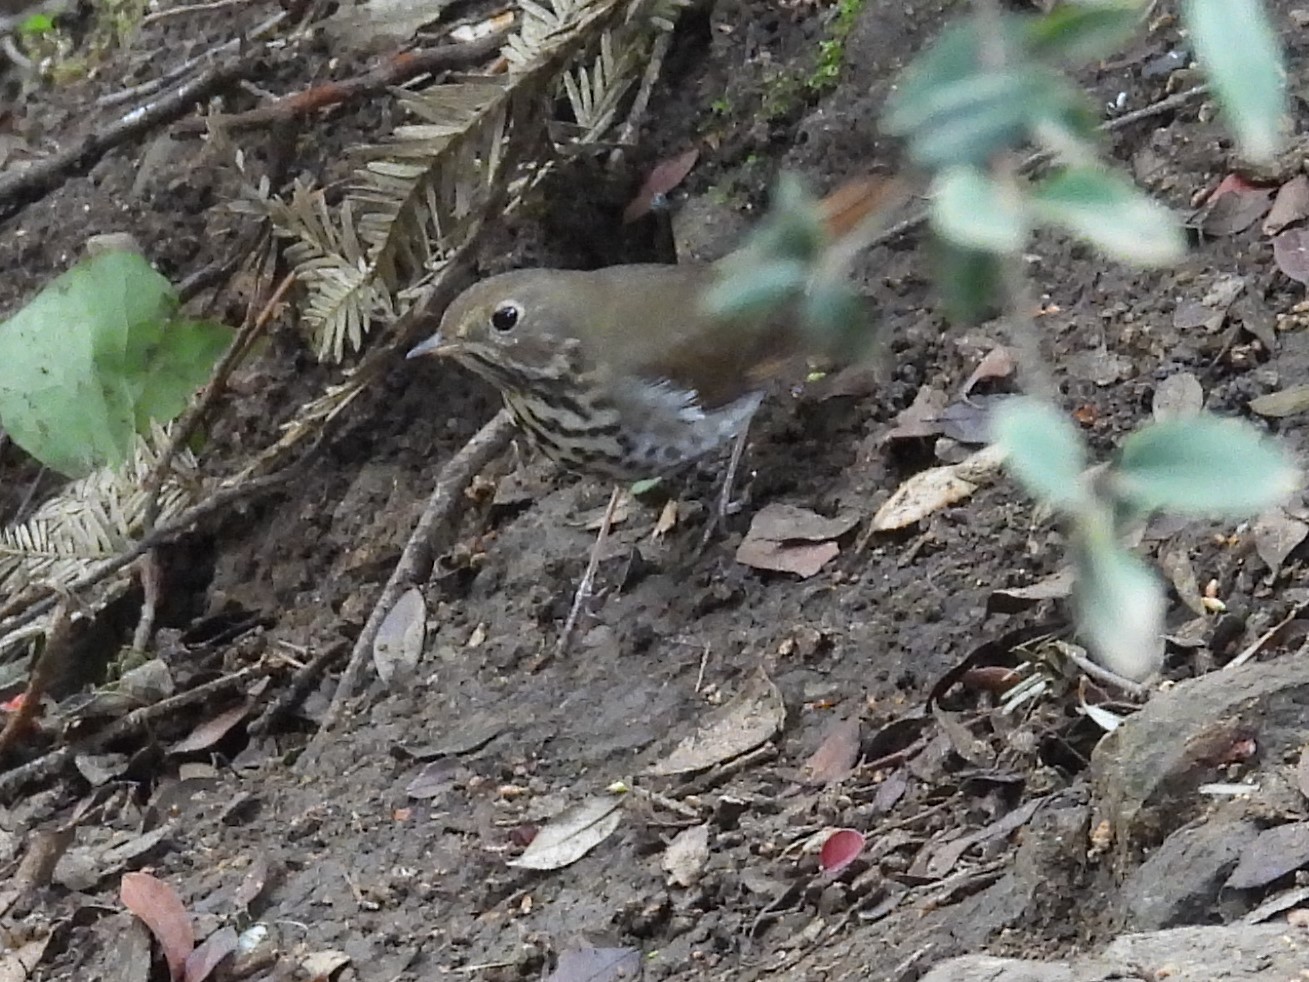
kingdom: Animalia
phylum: Chordata
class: Aves
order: Passeriformes
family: Turdidae
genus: Catharus
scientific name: Catharus guttatus
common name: Hermit thrush
